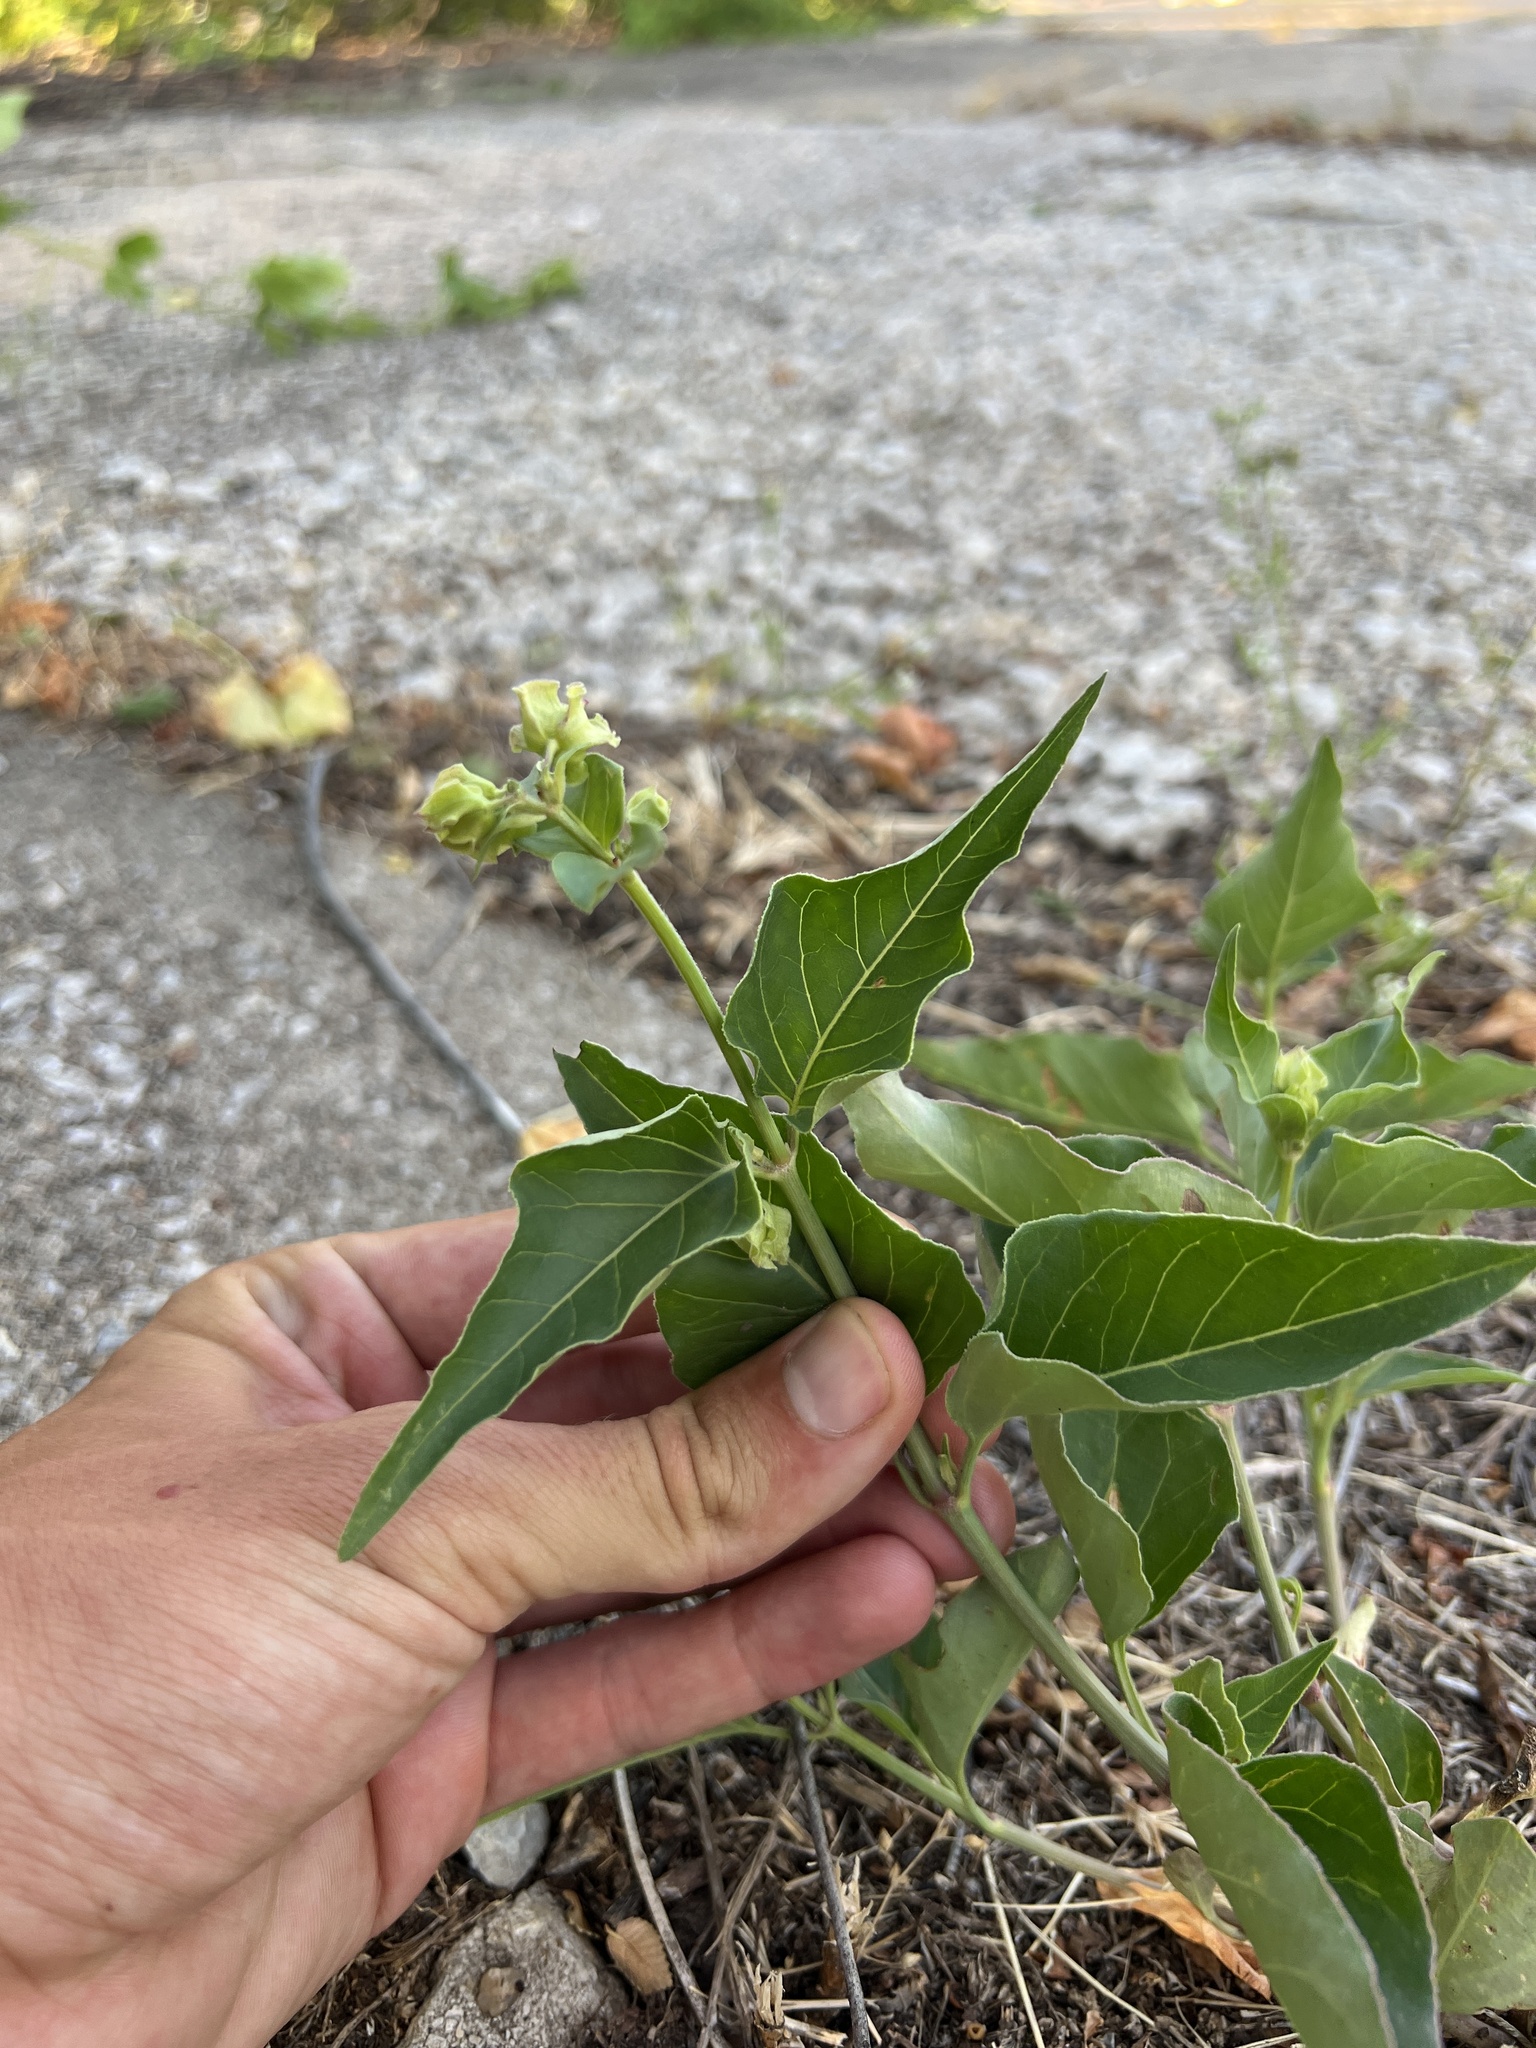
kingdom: Plantae
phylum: Tracheophyta
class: Magnoliopsida
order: Caryophyllales
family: Nyctaginaceae
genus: Mirabilis
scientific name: Mirabilis nyctaginea
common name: Umbrella wort
